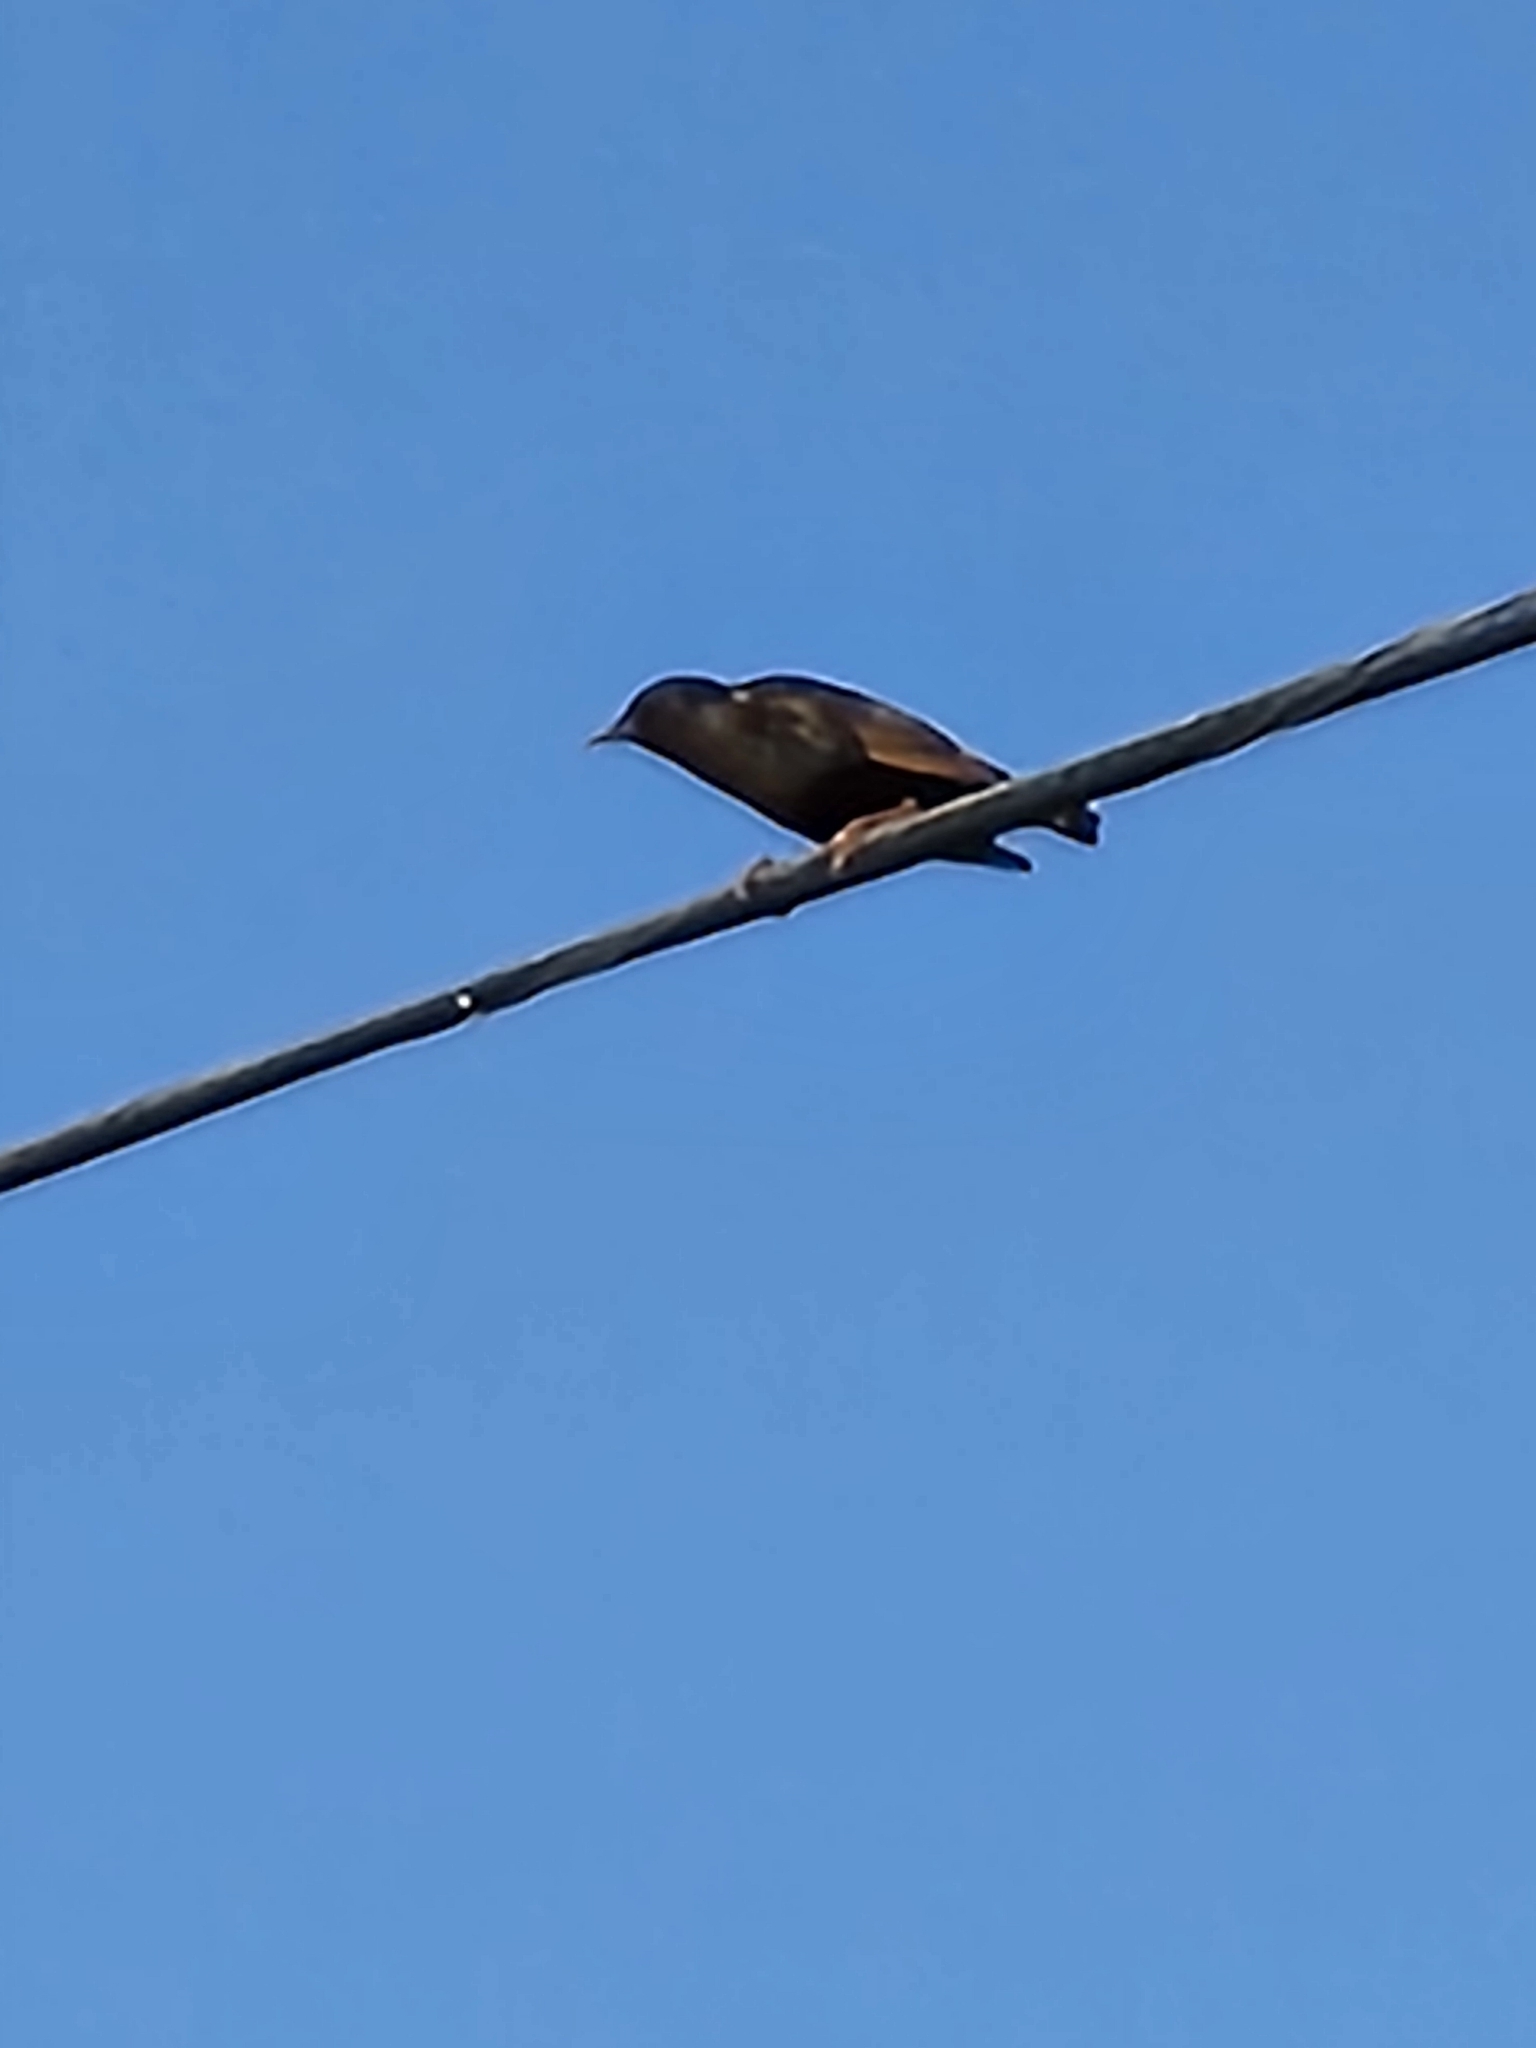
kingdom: Animalia
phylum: Chordata
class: Aves
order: Passeriformes
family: Sturnidae
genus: Sturnus
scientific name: Sturnus vulgaris
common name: Common starling
